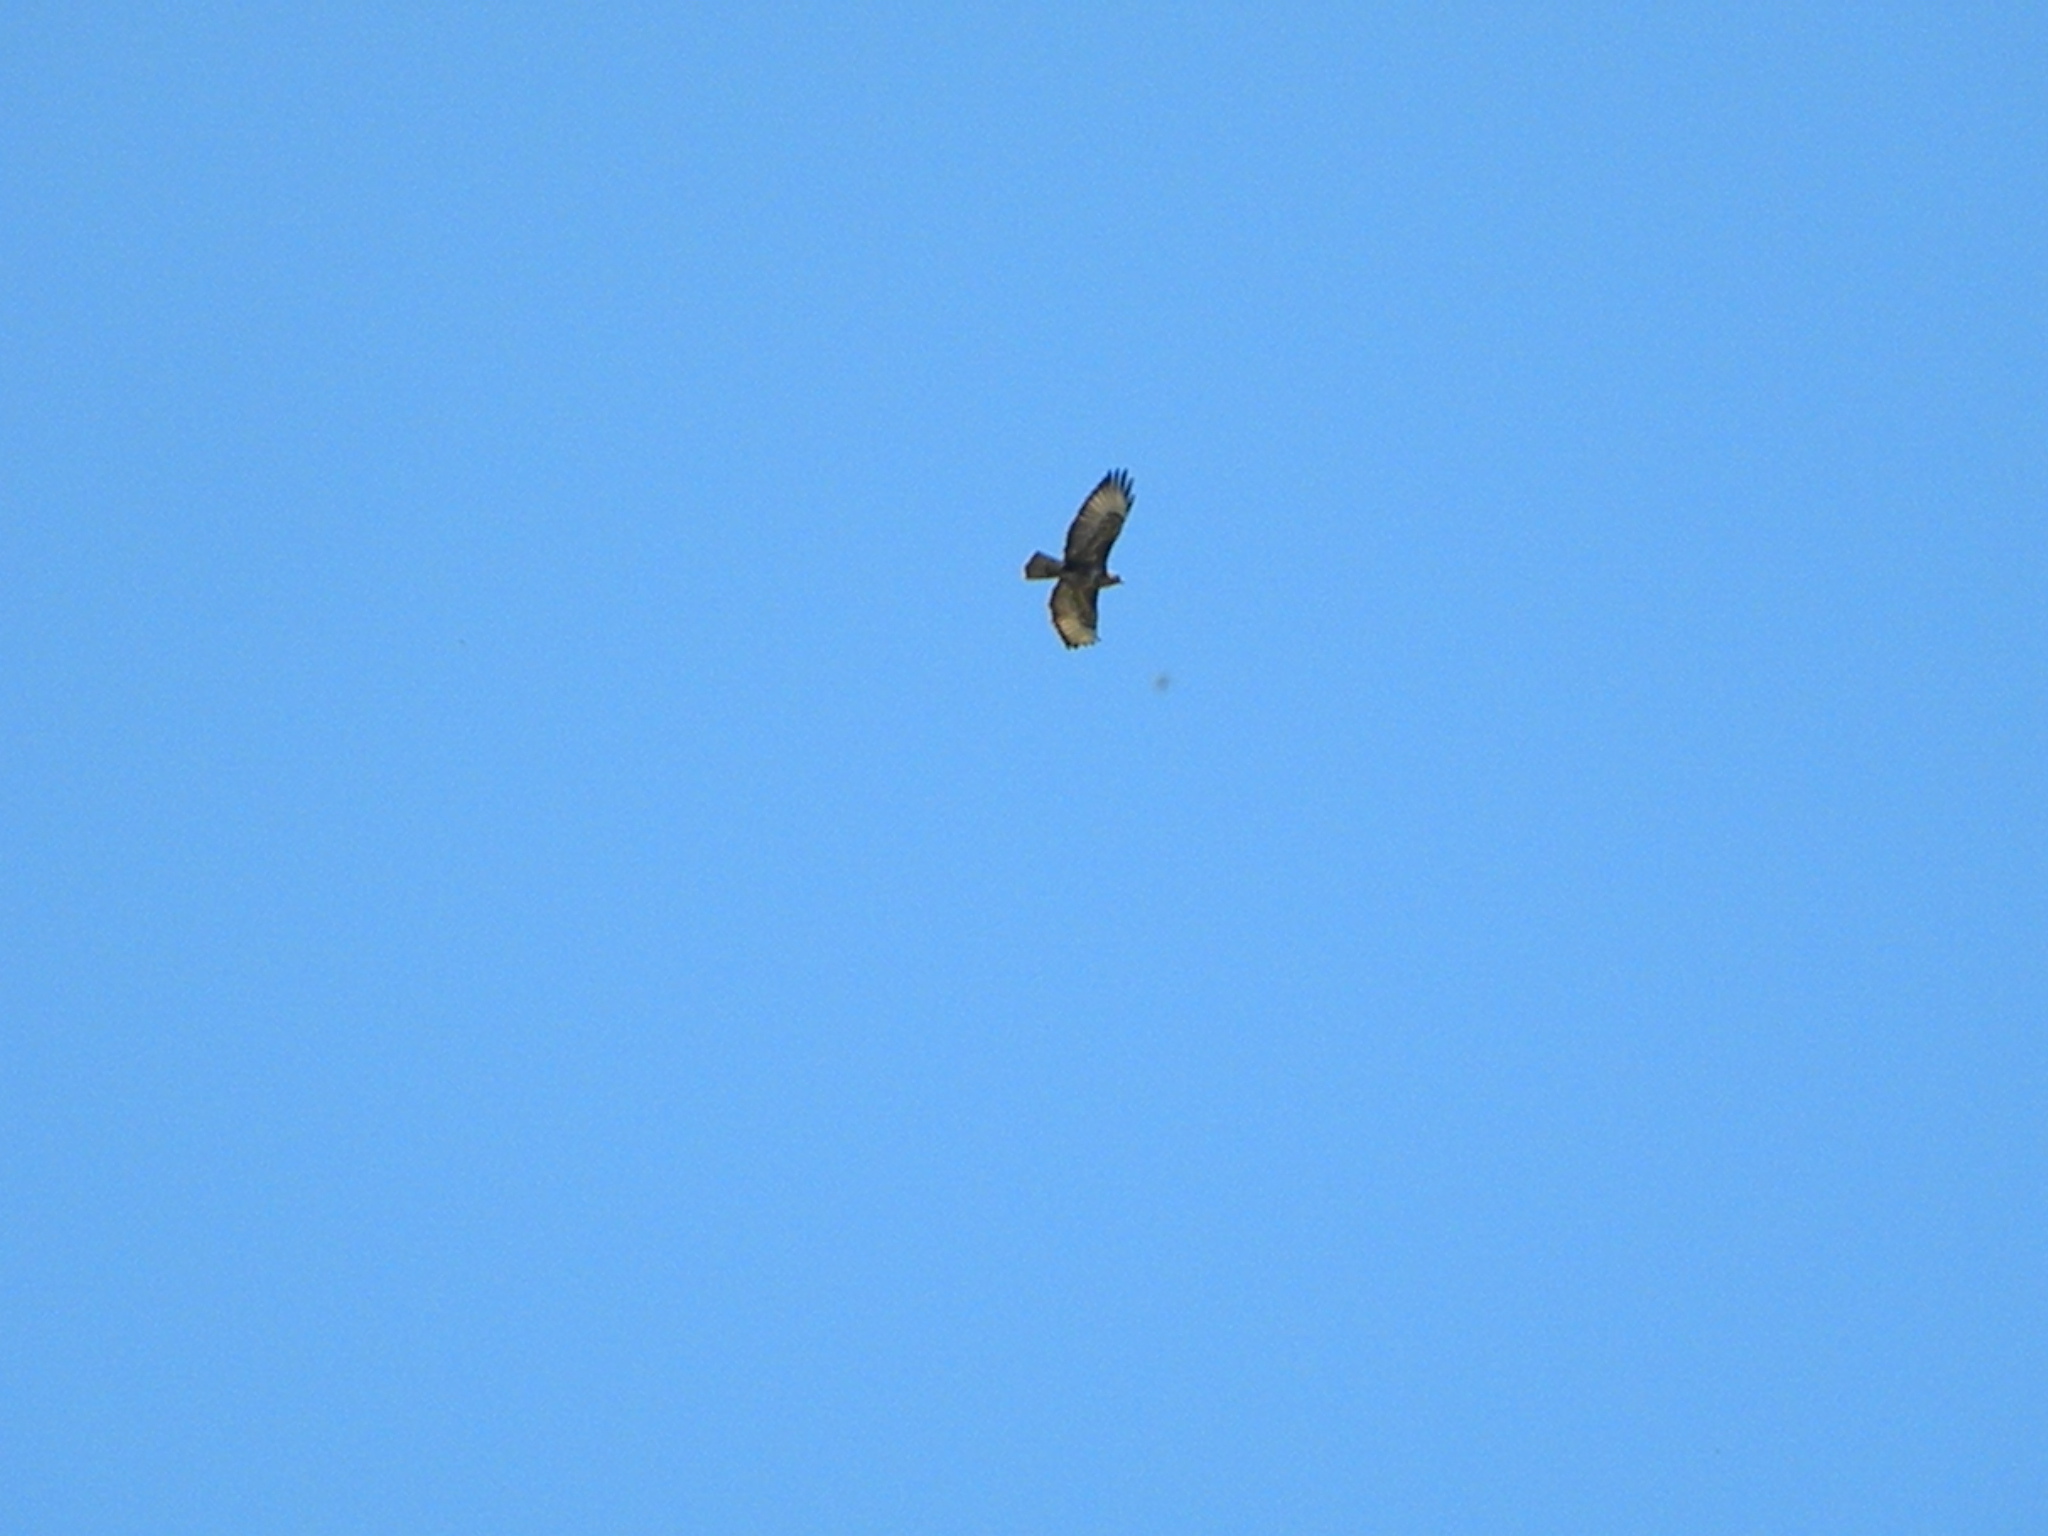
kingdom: Animalia
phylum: Chordata
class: Aves
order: Accipitriformes
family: Accipitridae
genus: Buteo
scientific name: Buteo buteo
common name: Common buzzard
